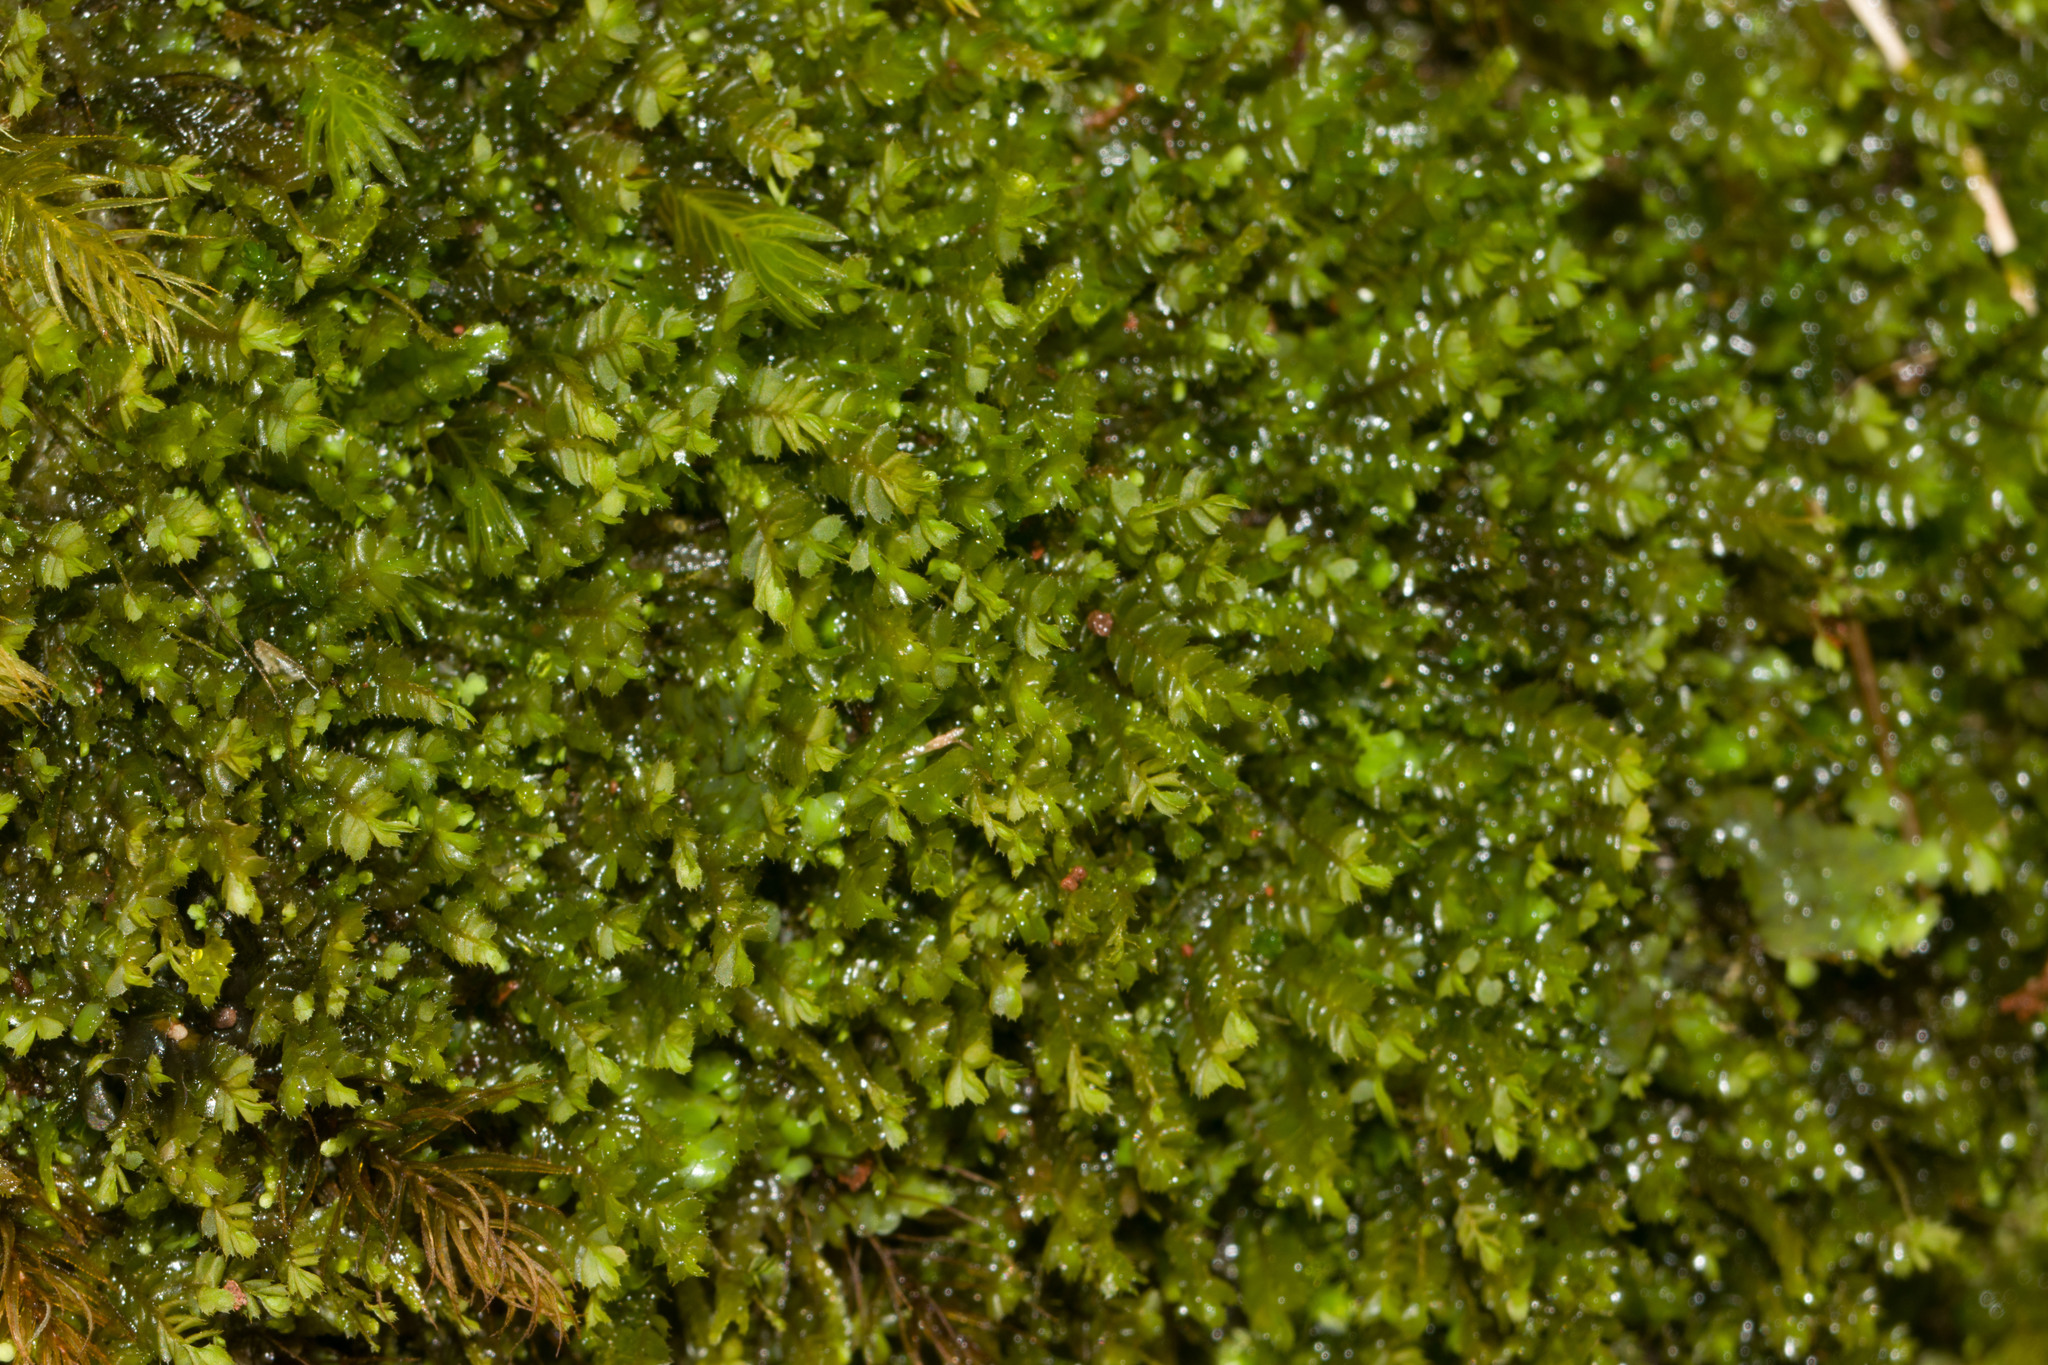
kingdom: Plantae
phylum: Marchantiophyta
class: Jungermanniopsida
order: Jungermanniales
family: Plagiochilaceae
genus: Plagiochila
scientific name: Plagiochila gaudichaudii
